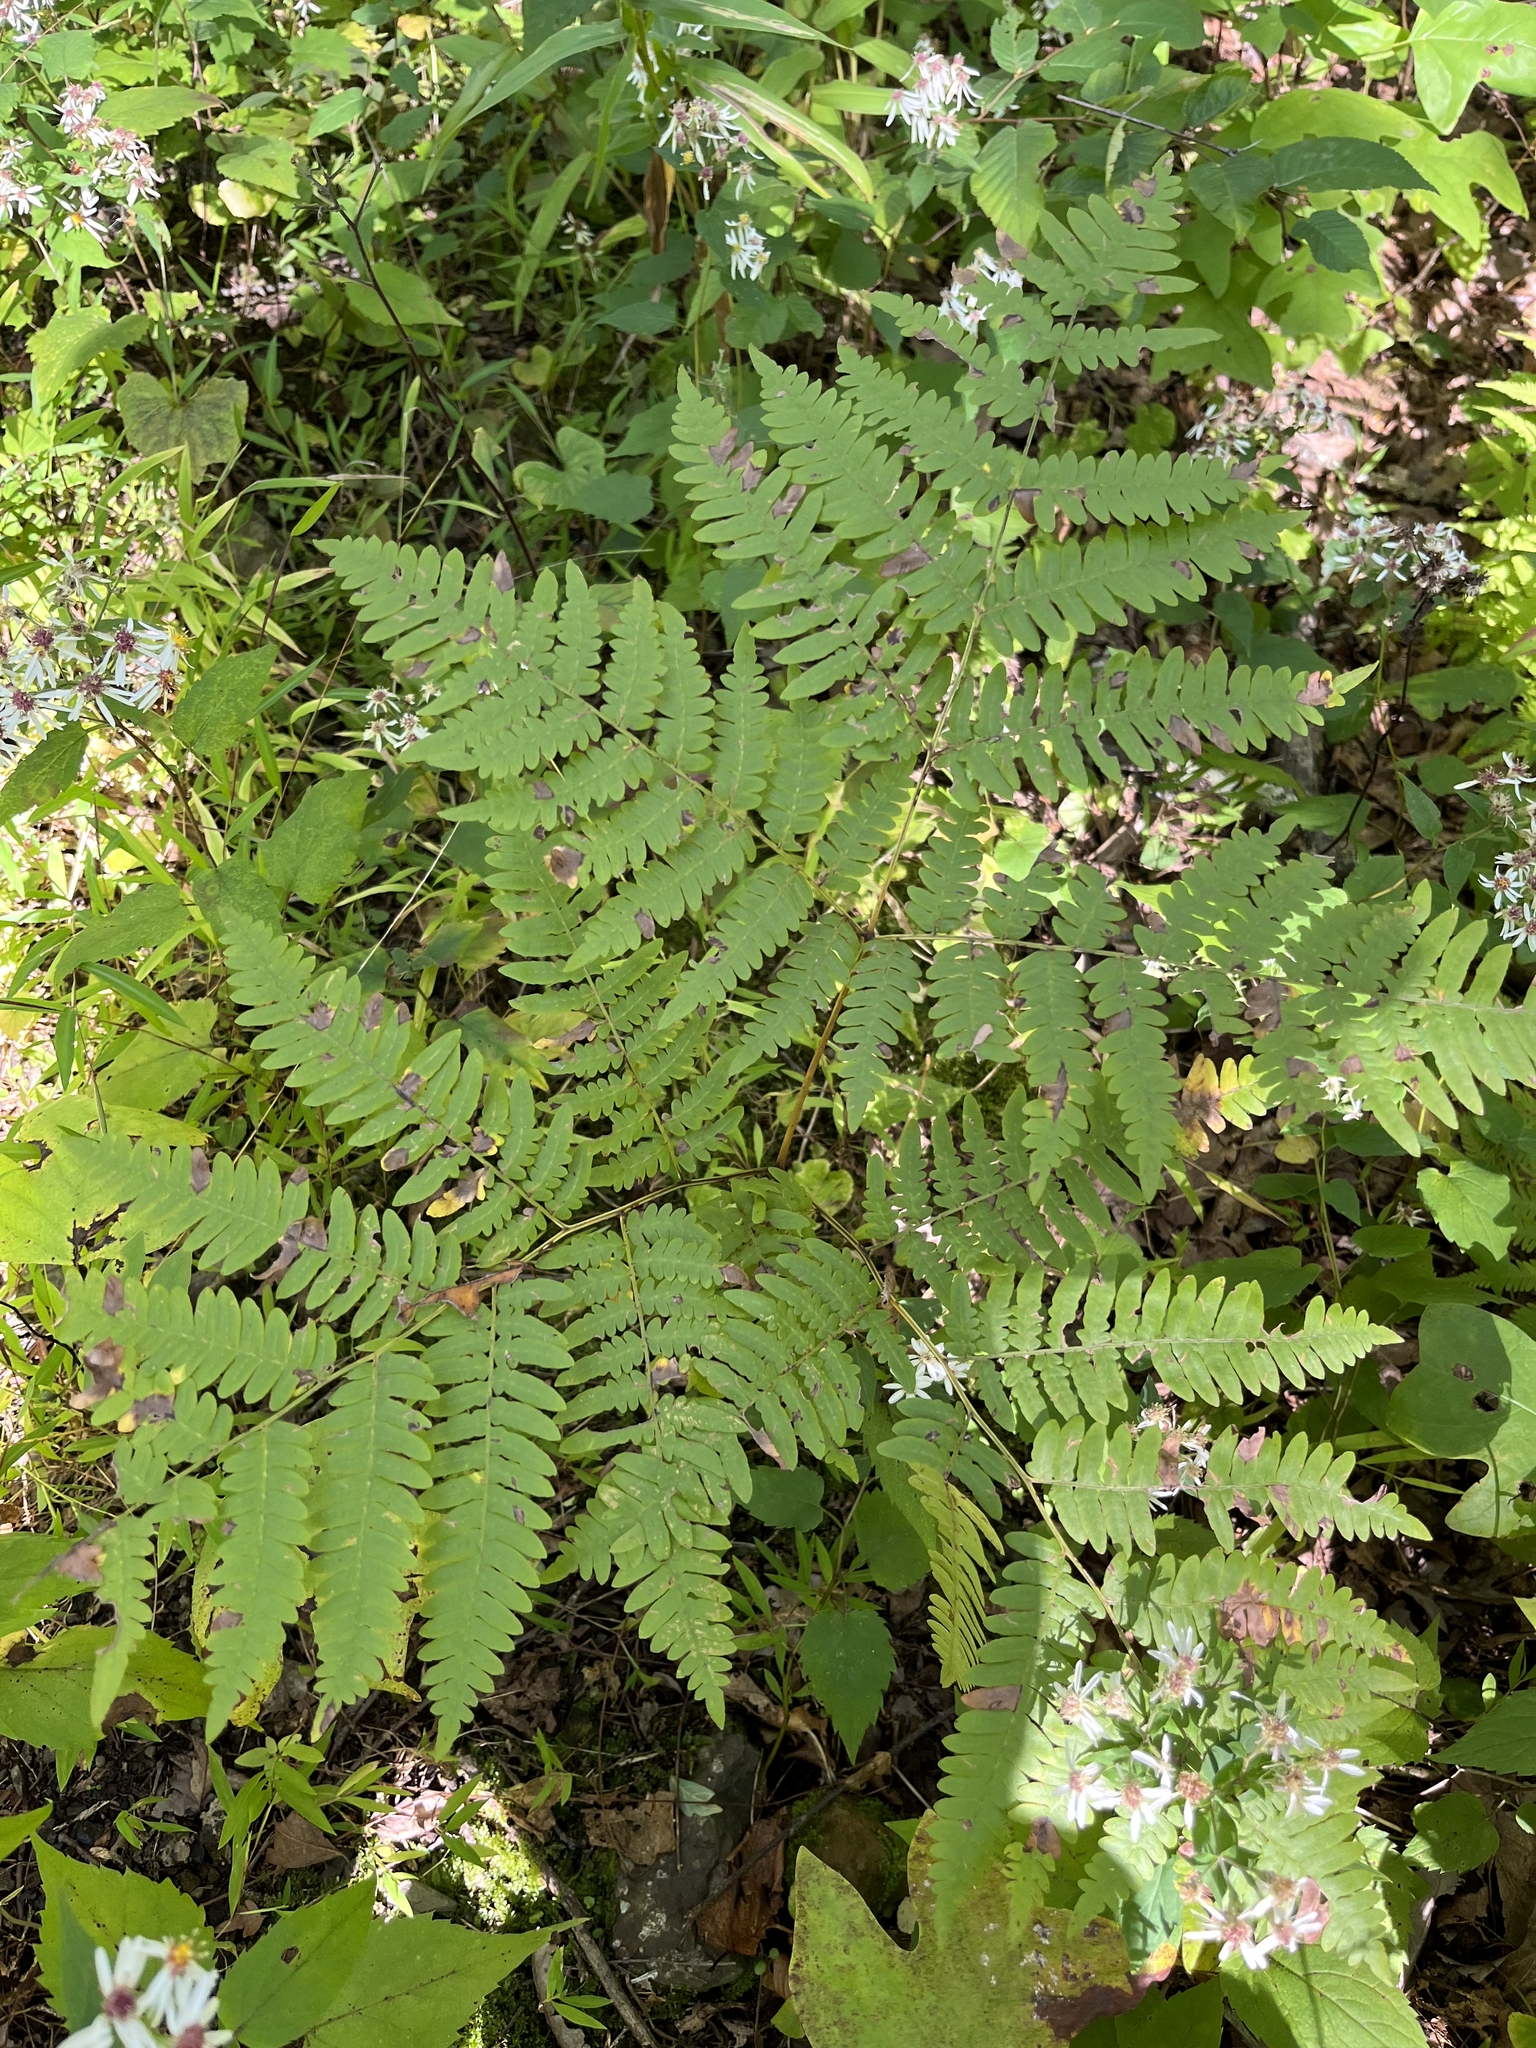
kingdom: Plantae
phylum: Tracheophyta
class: Polypodiopsida
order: Polypodiales
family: Dennstaedtiaceae
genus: Pteridium
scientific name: Pteridium aquilinum
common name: Bracken
